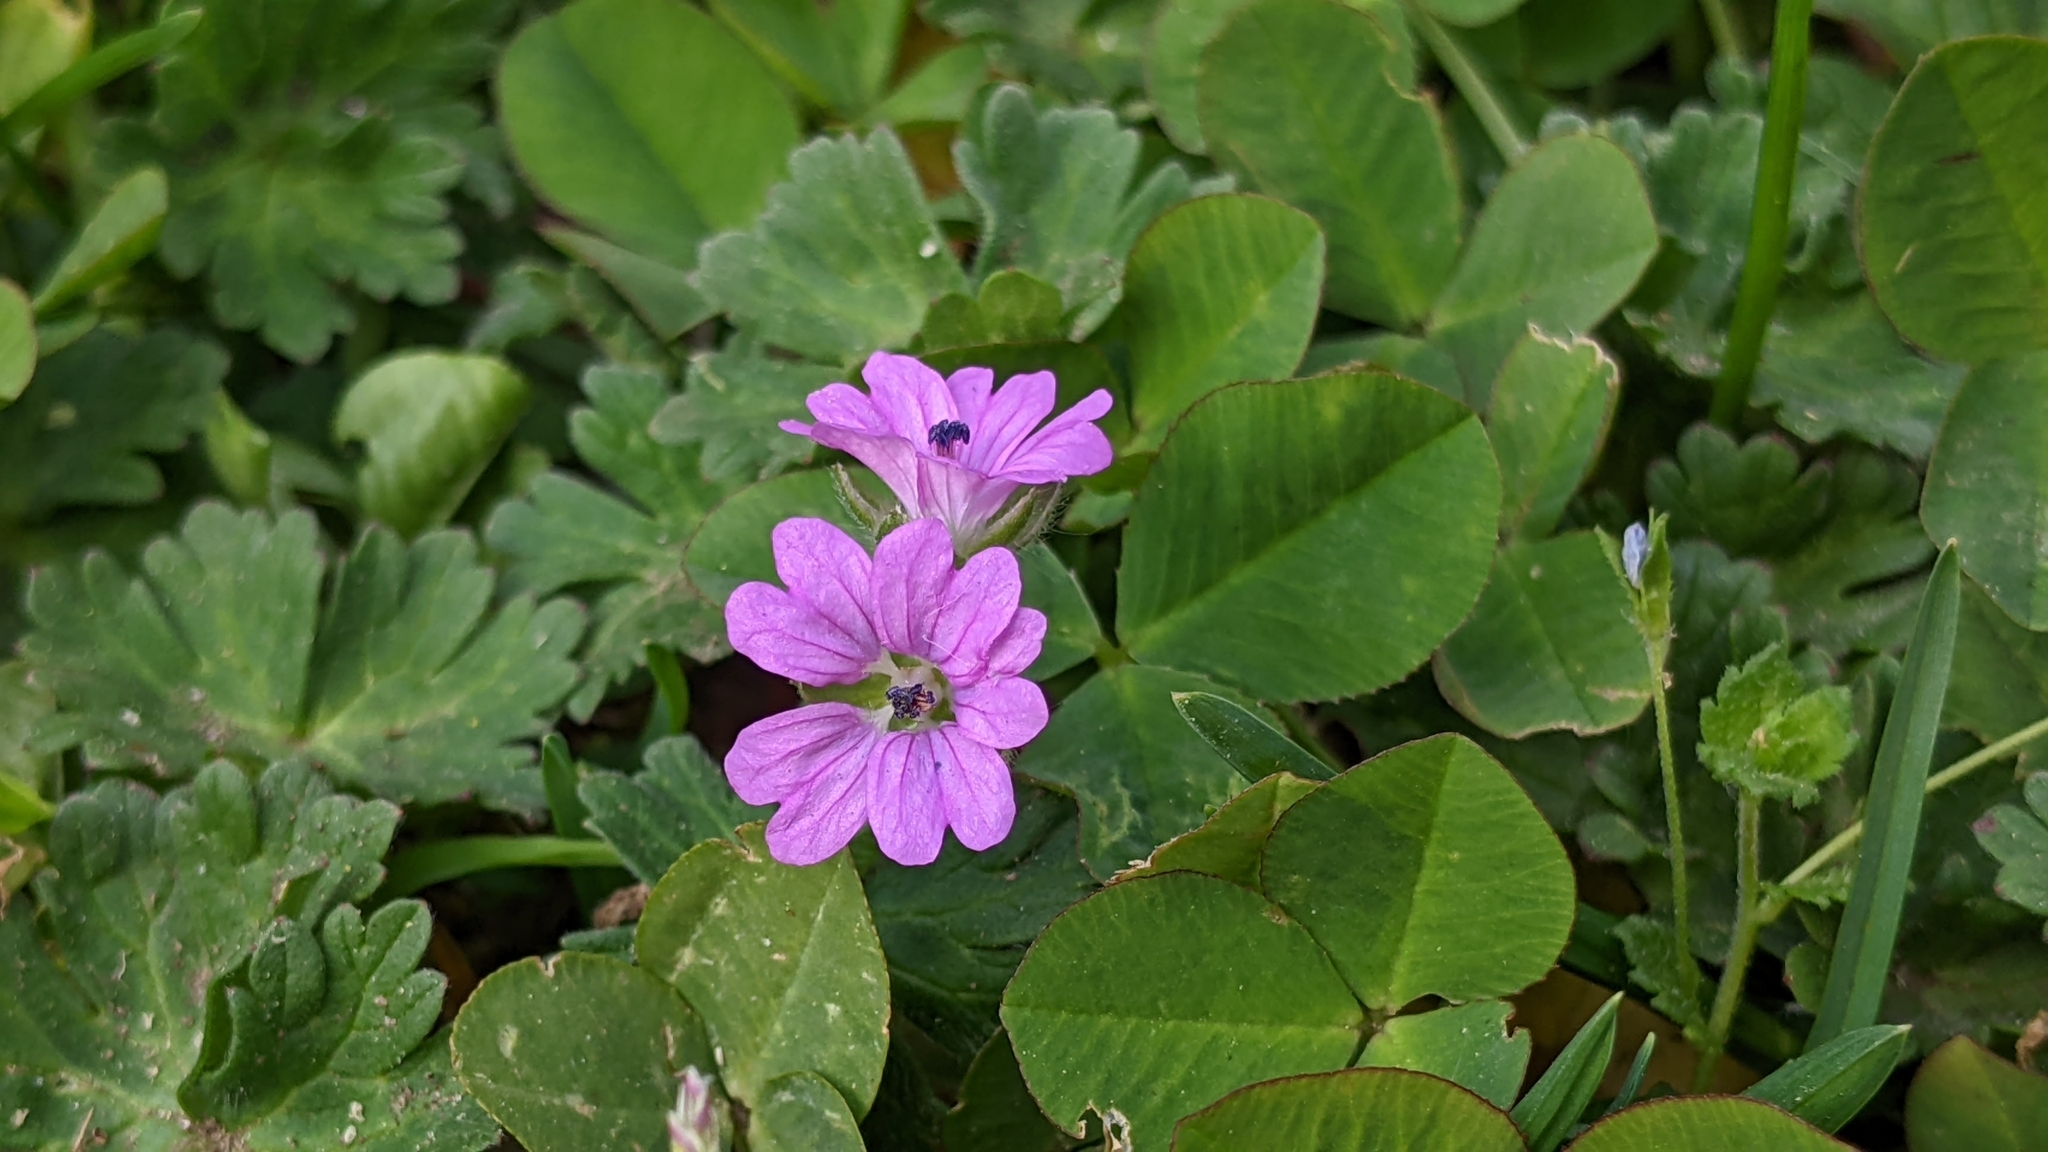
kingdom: Plantae
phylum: Tracheophyta
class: Magnoliopsida
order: Geraniales
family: Geraniaceae
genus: Geranium
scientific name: Geranium molle
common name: Dove's-foot crane's-bill
